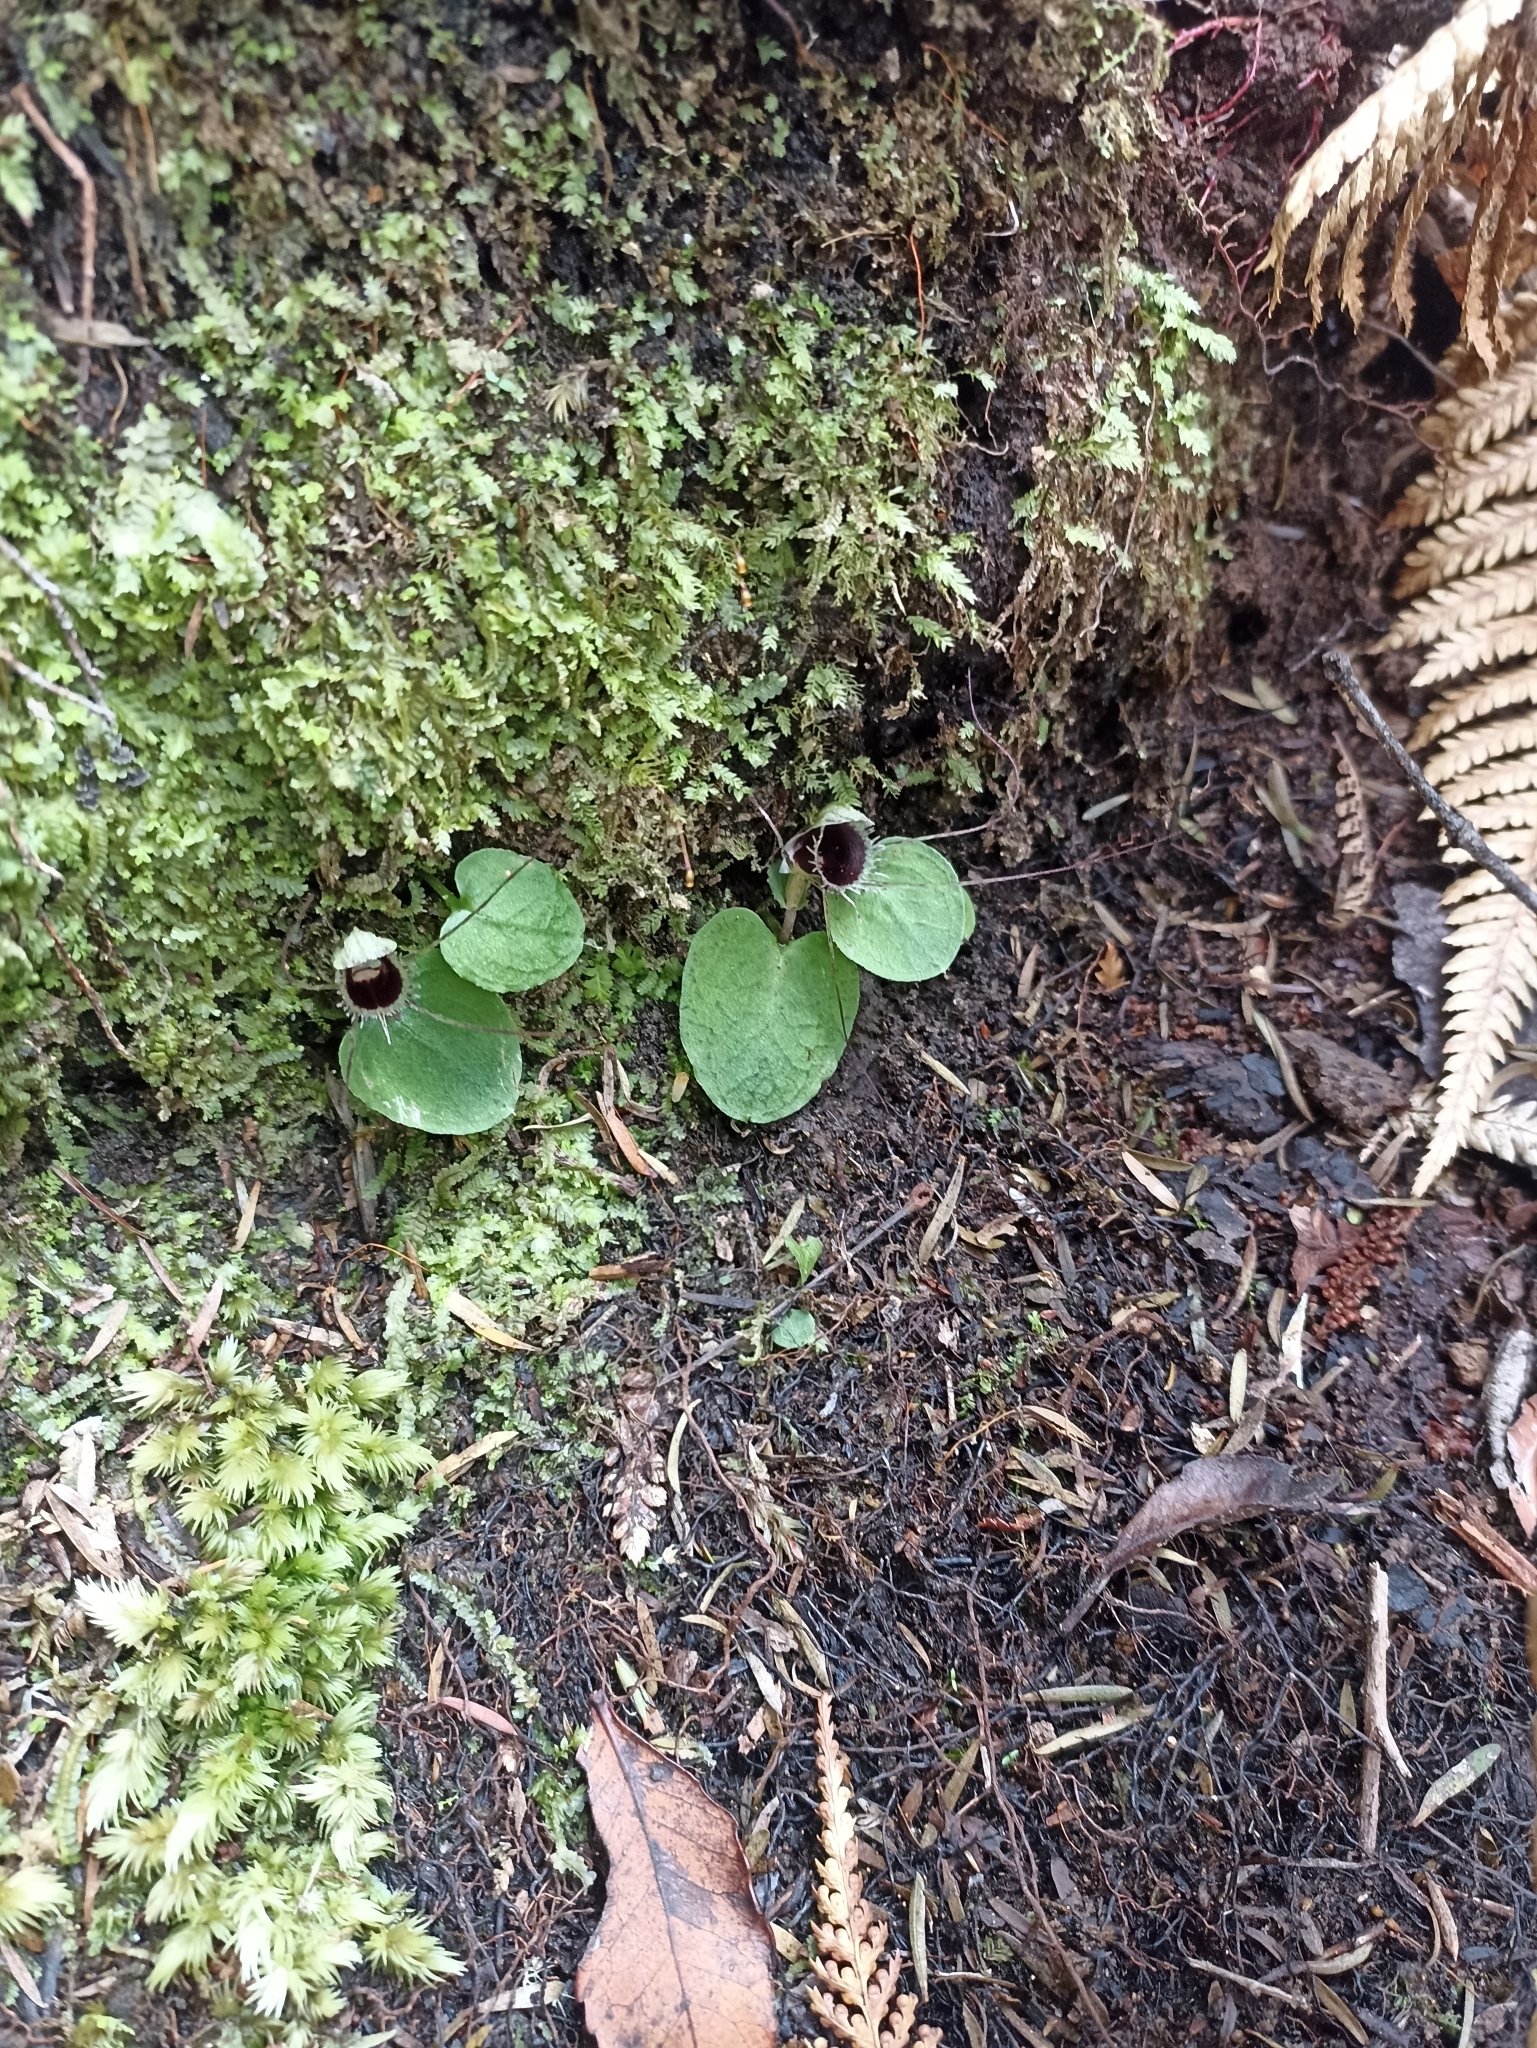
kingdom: Plantae
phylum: Tracheophyta
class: Liliopsida
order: Asparagales
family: Orchidaceae
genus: Corybas
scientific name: Corybas oblongus
